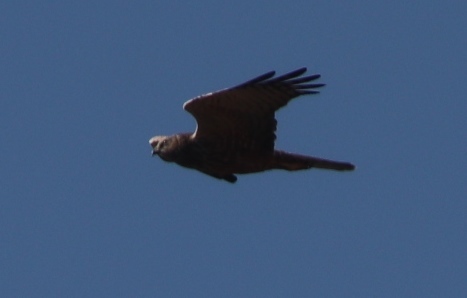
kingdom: Animalia
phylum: Chordata
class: Aves
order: Accipitriformes
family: Accipitridae
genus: Circus
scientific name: Circus ranivorus
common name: African marsh-harrier
